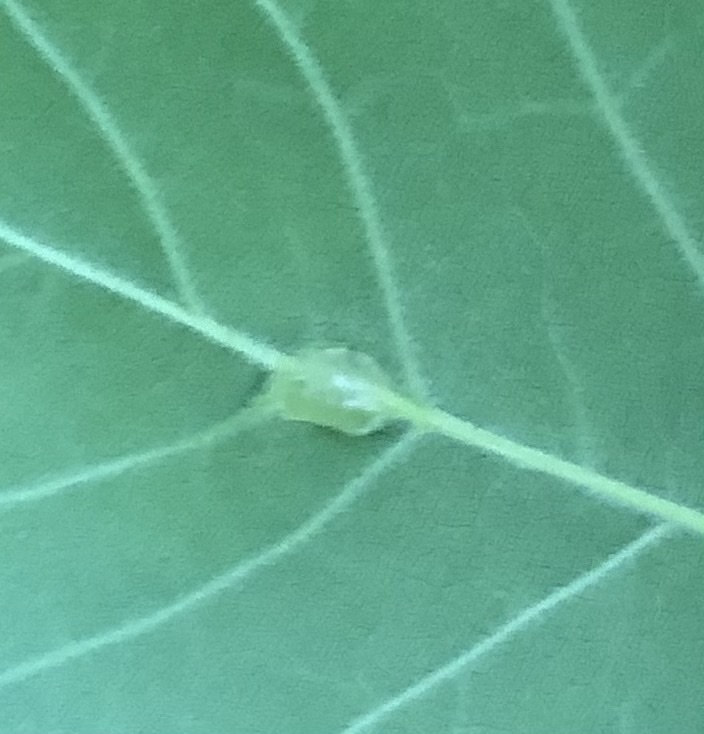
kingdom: Animalia
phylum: Arthropoda
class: Insecta
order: Diptera
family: Cecidomyiidae
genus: Dasineura
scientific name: Dasineura pellex
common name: Ash bullet gall midge
